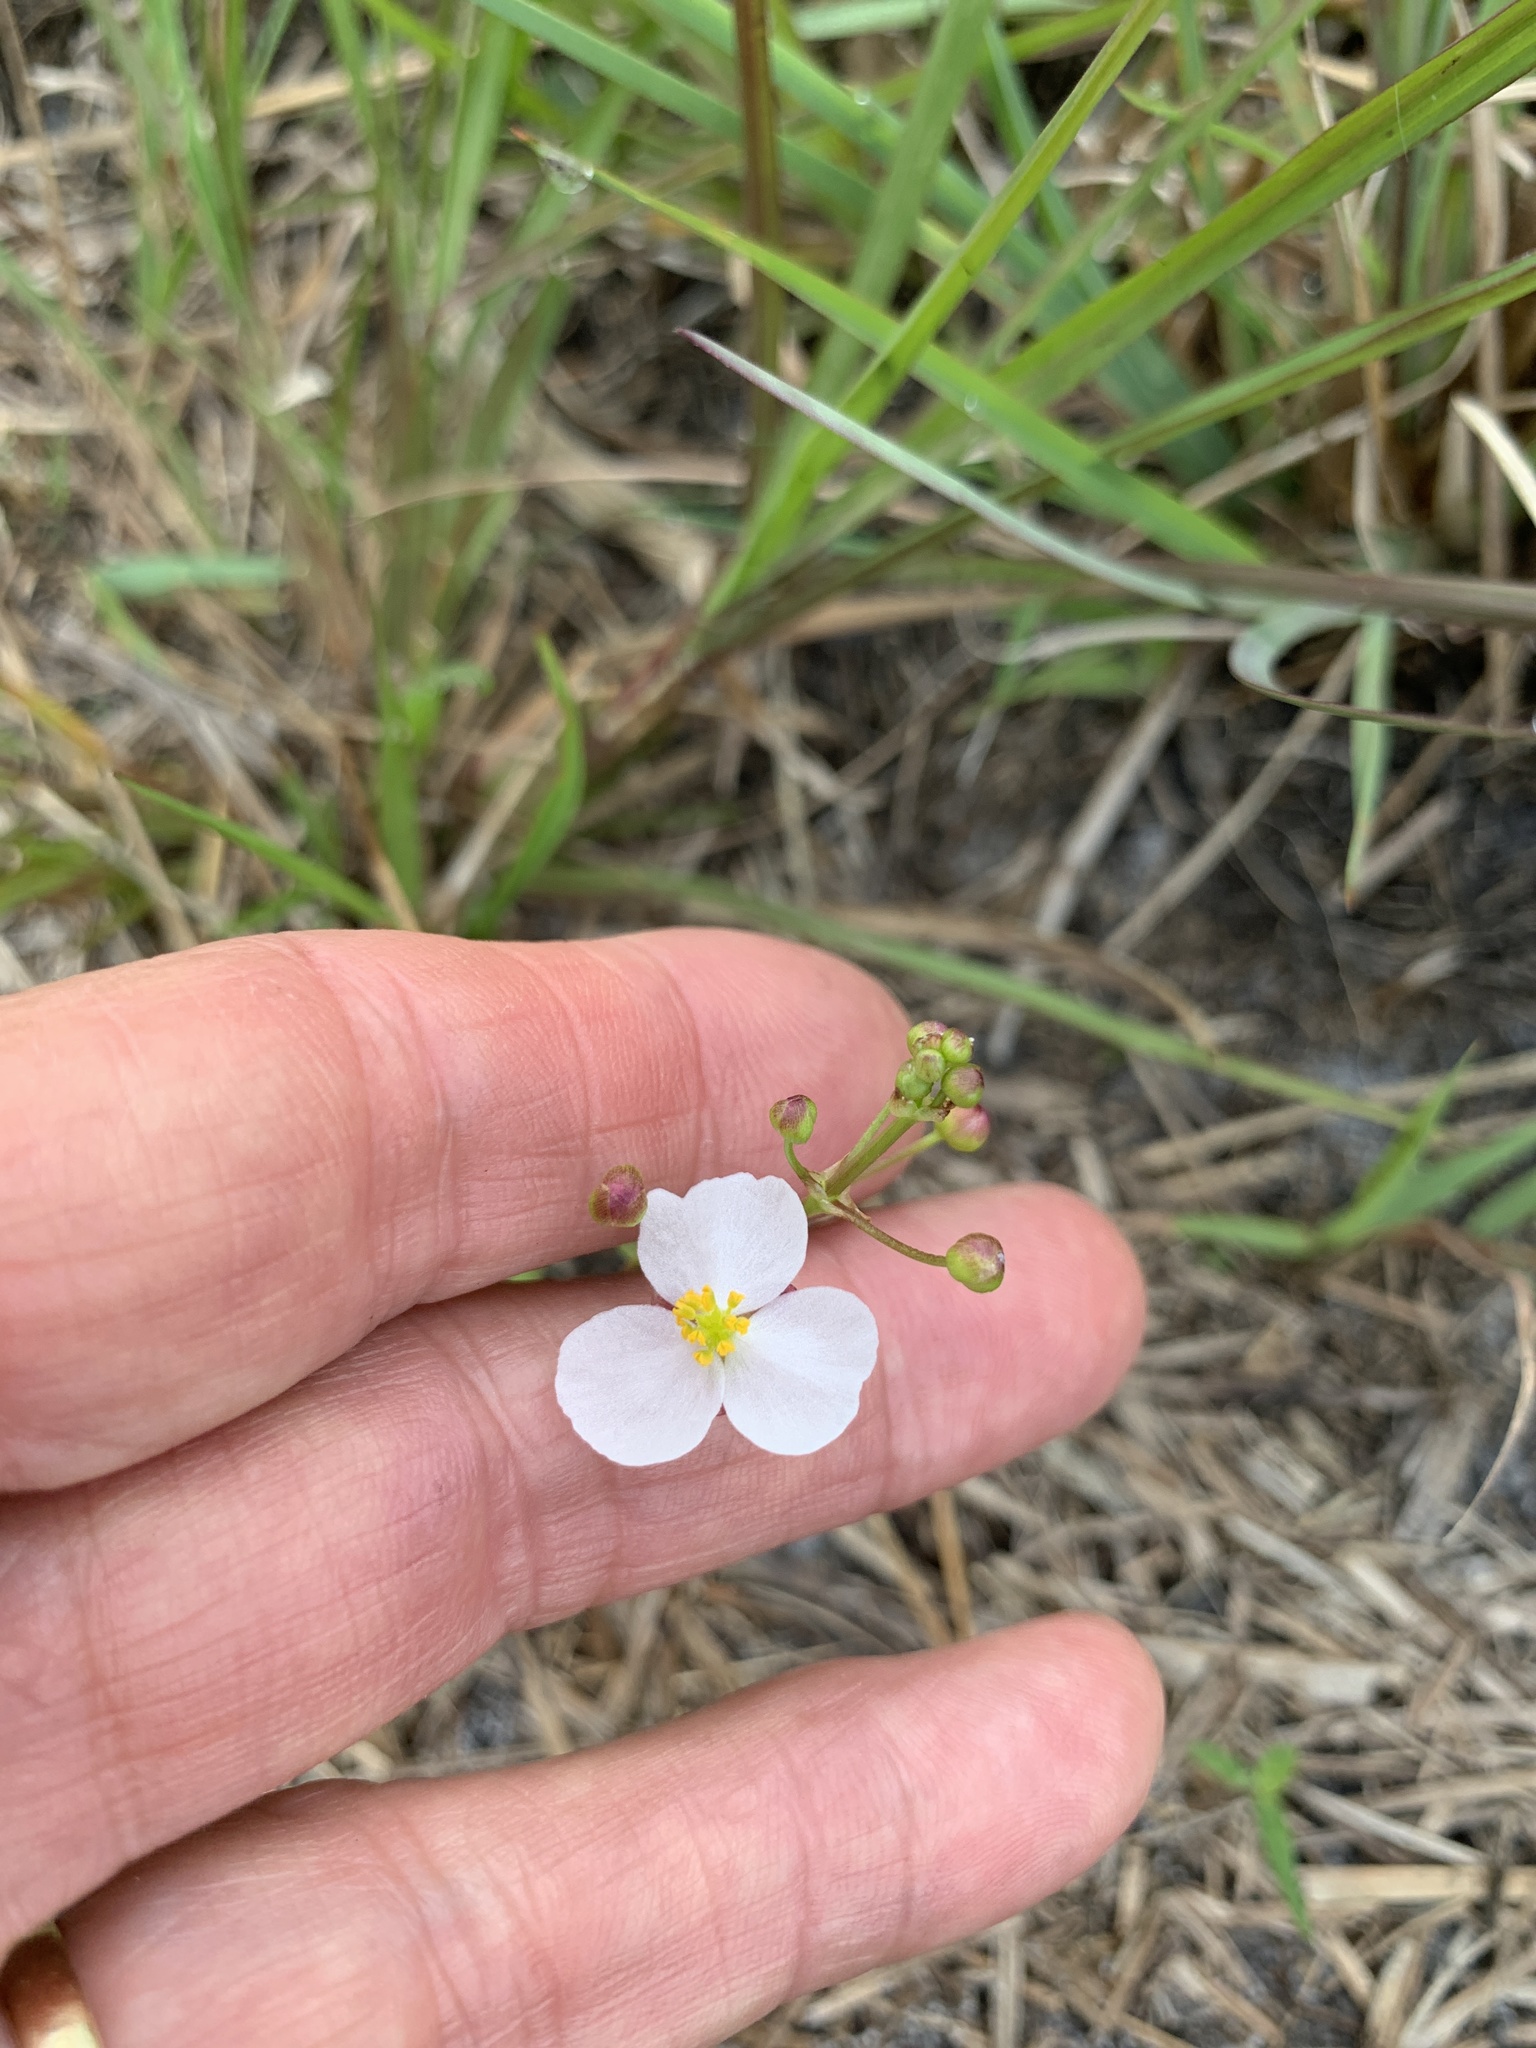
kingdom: Plantae
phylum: Tracheophyta
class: Liliopsida
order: Alismatales
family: Alismataceae
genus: Sagittaria
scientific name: Sagittaria graminea
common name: Grass-leaved arrowhead
